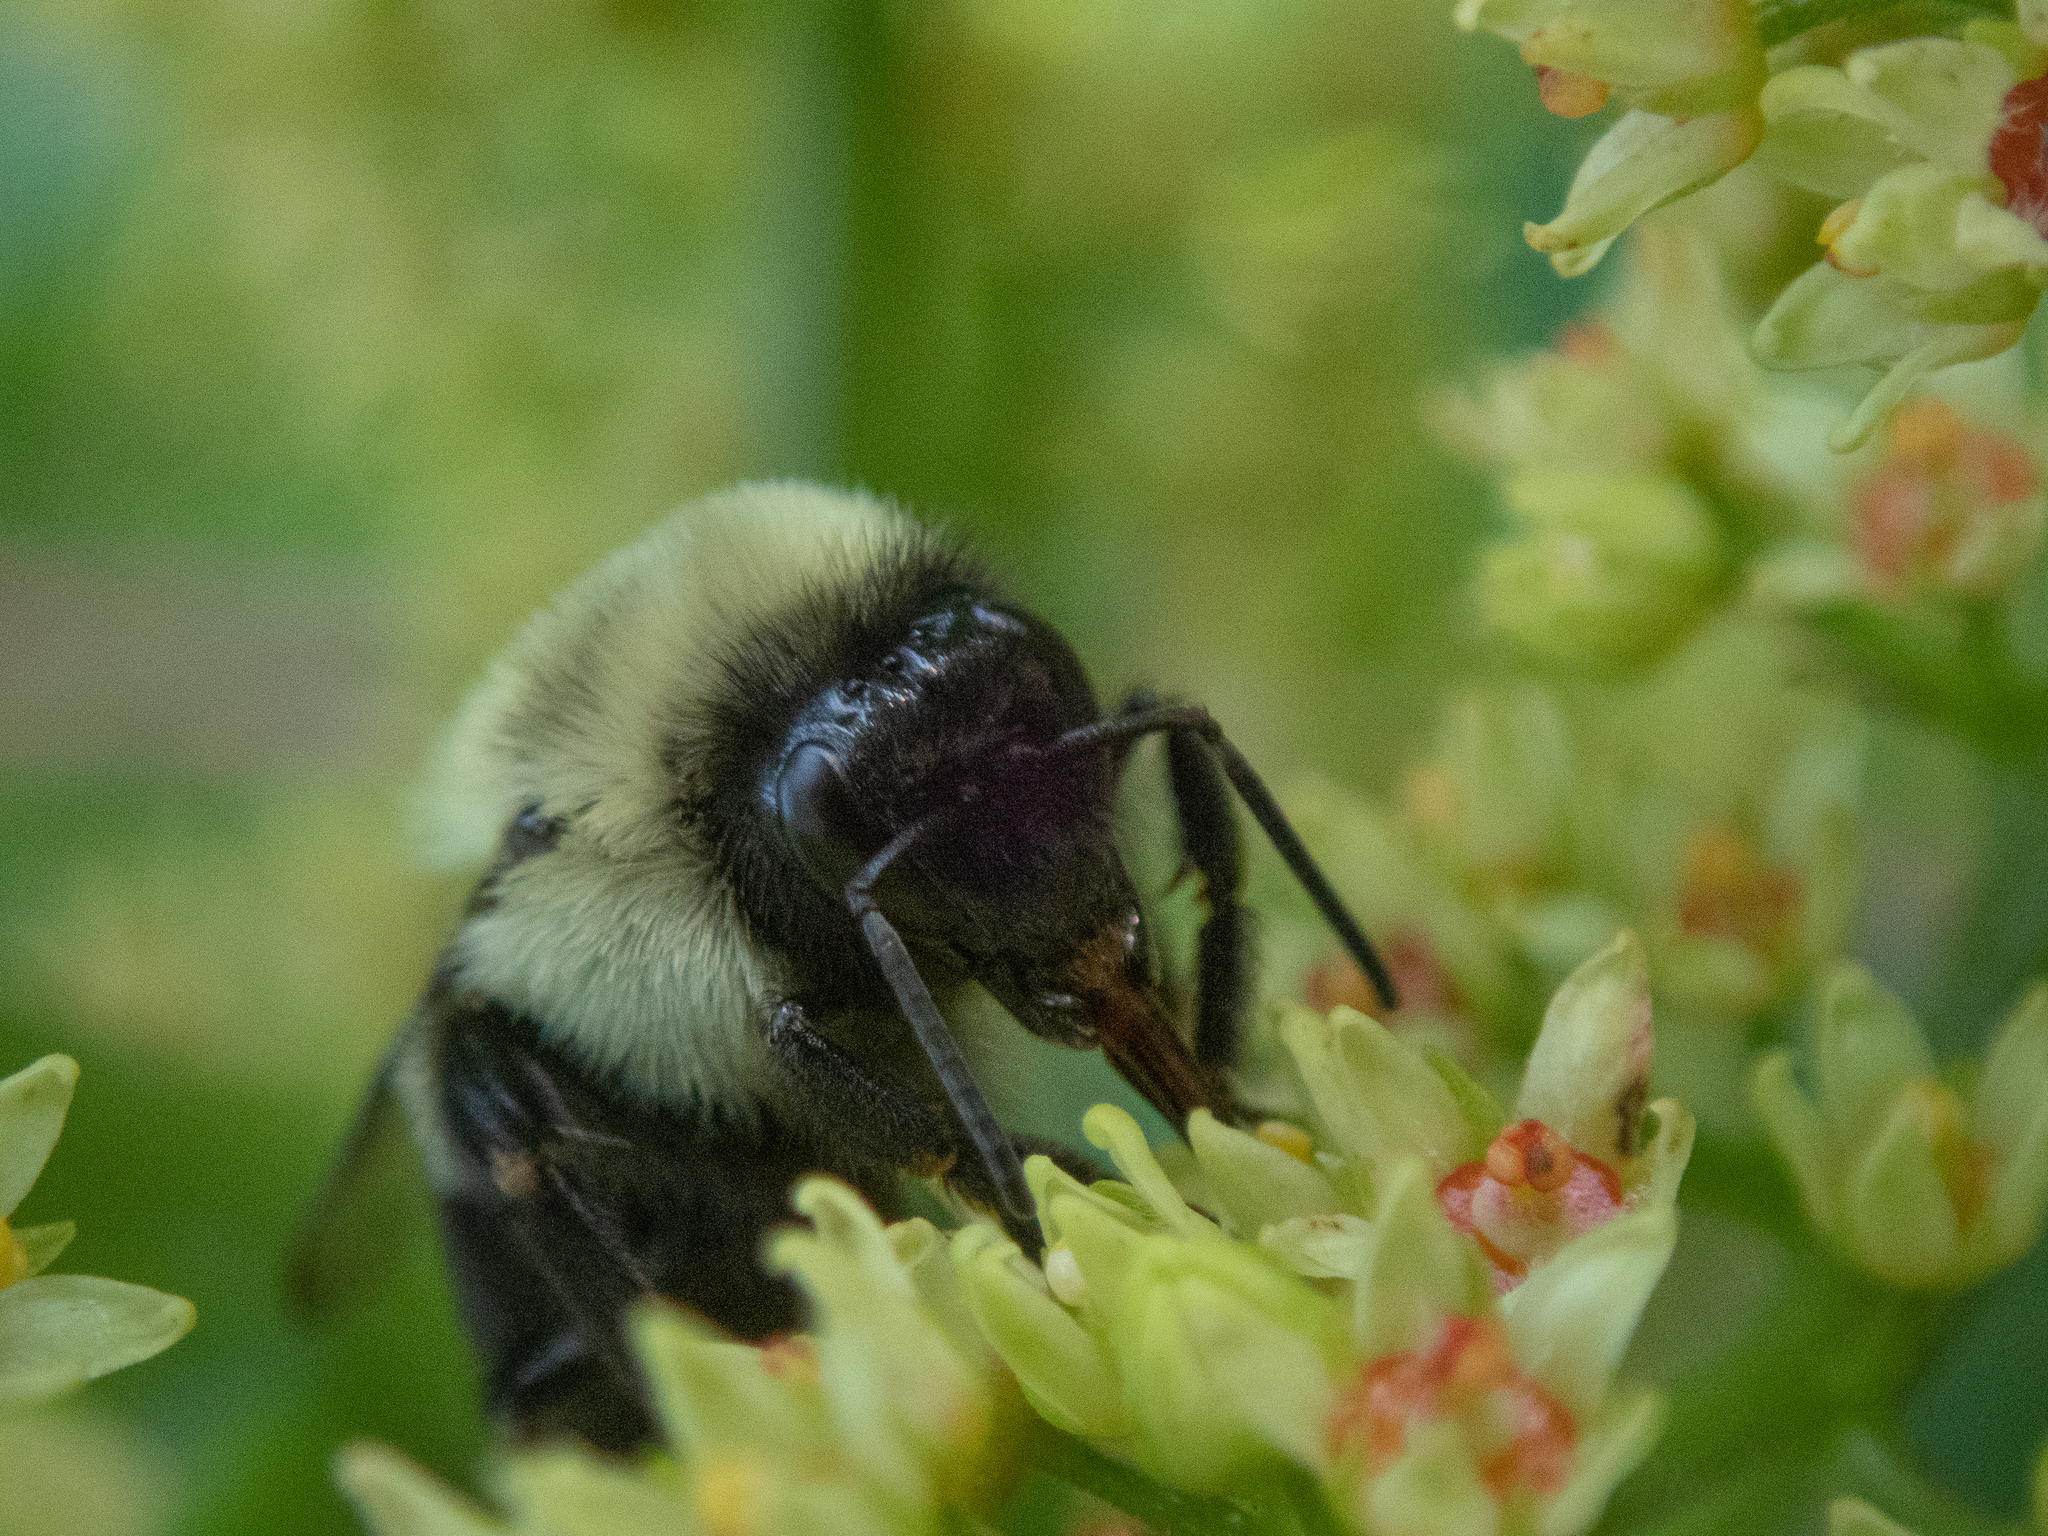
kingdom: Animalia
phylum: Arthropoda
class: Insecta
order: Hymenoptera
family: Apidae
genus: Bombus
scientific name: Bombus impatiens
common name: Common eastern bumble bee
